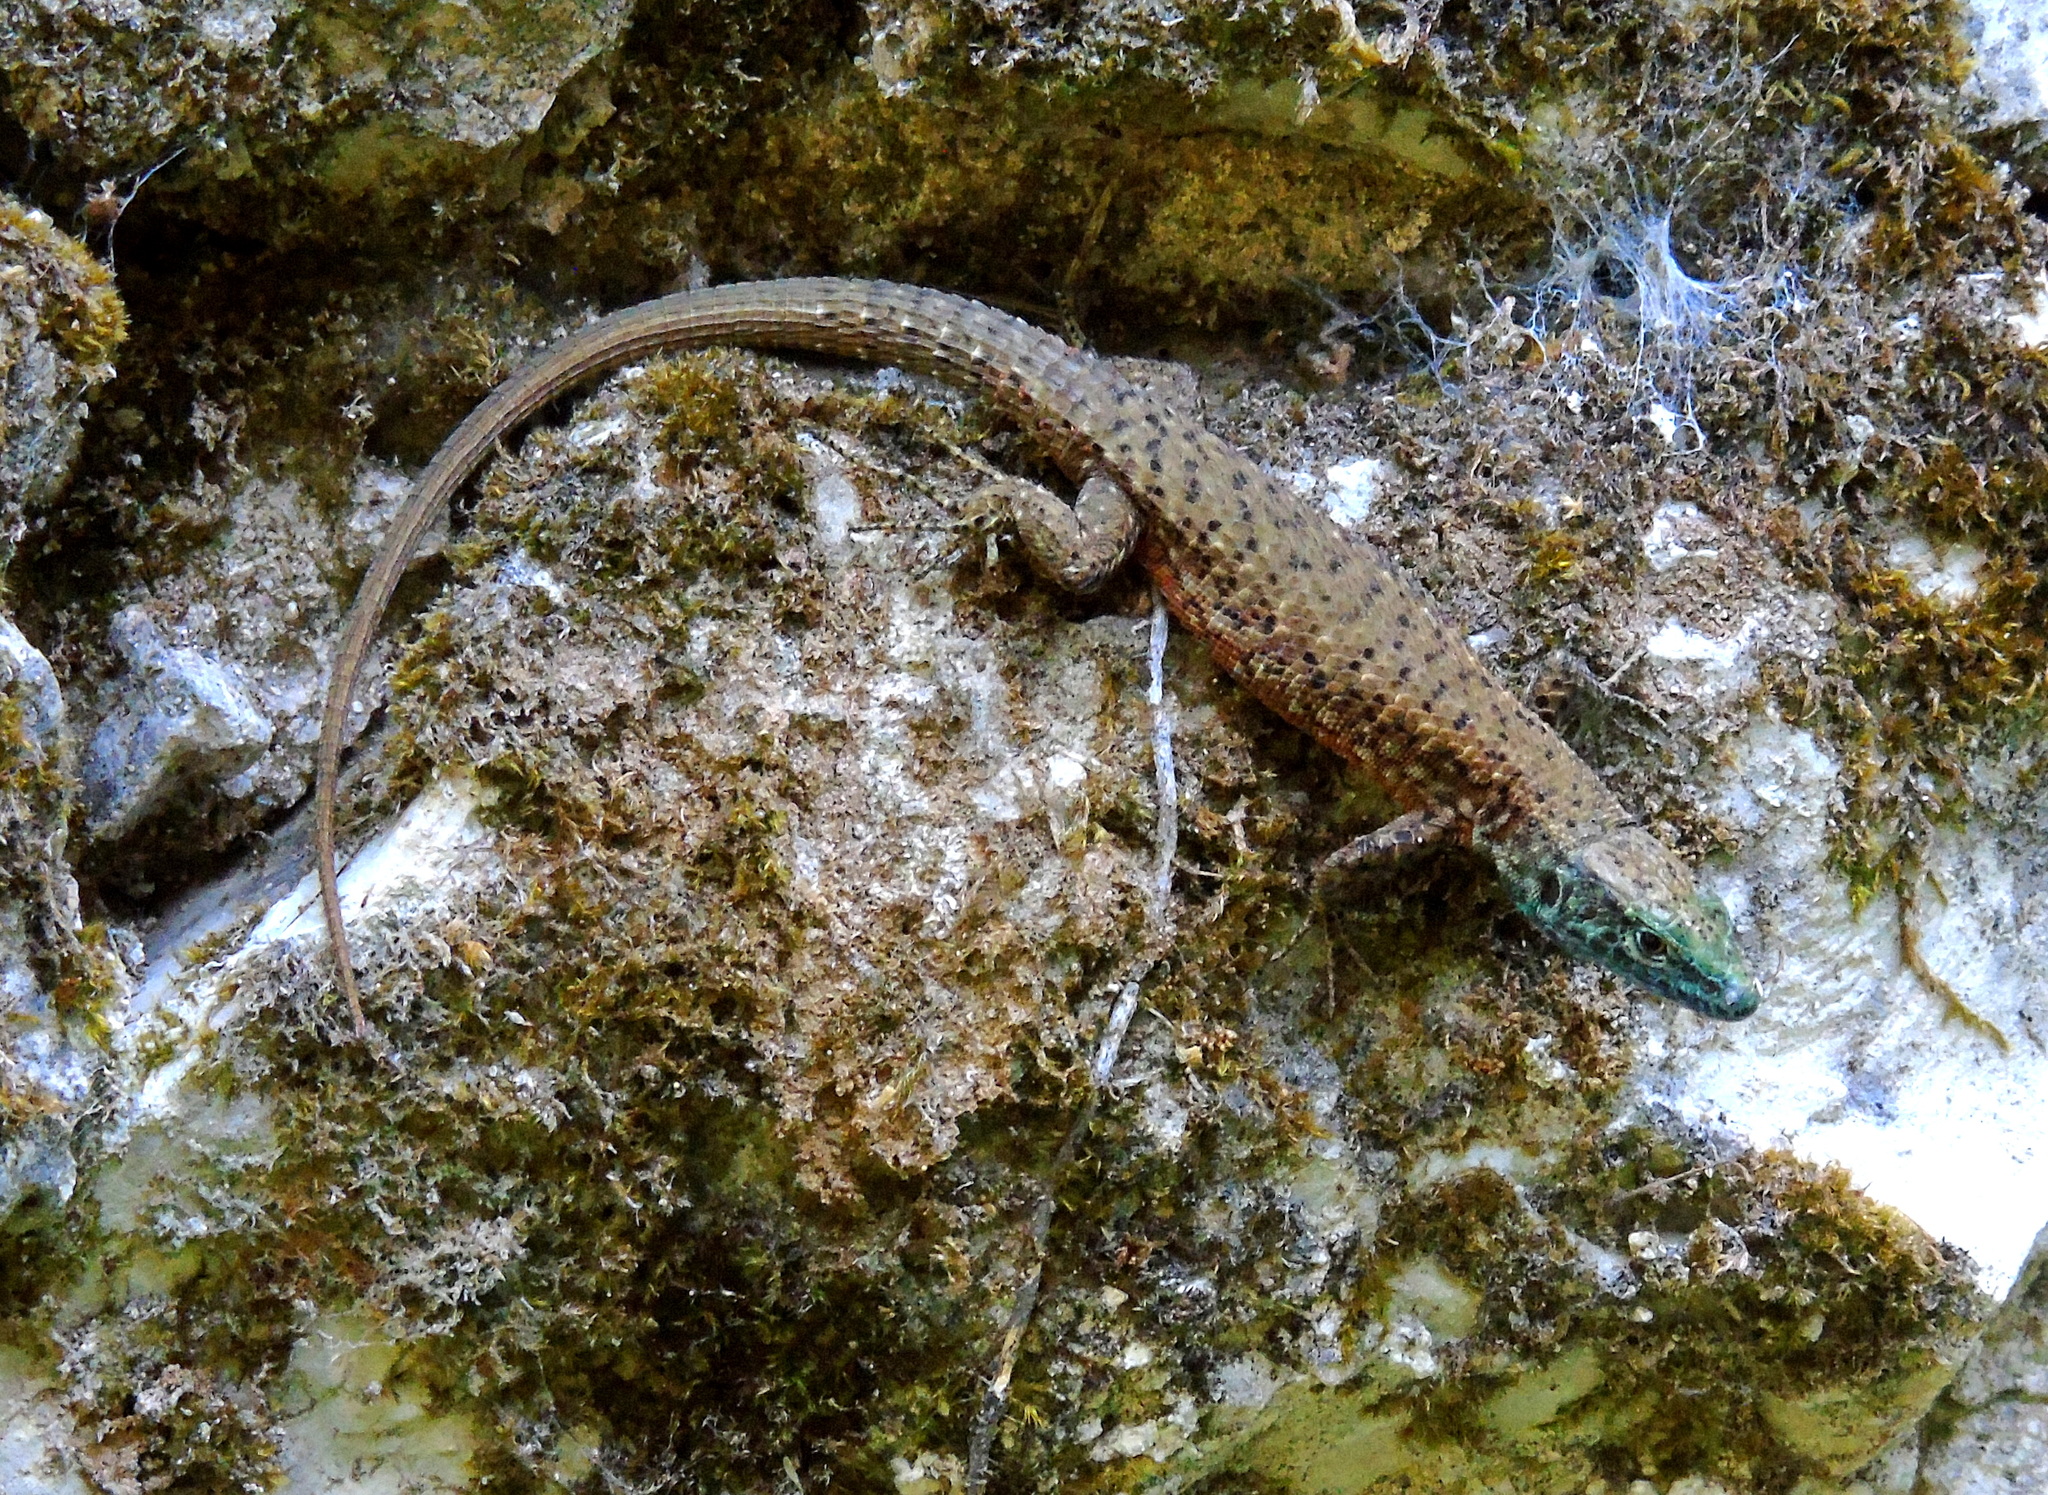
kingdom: Animalia
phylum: Chordata
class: Squamata
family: Lacertidae
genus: Algyroides
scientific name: Algyroides nigropunctatus
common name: Blue-throated keeled lizard
